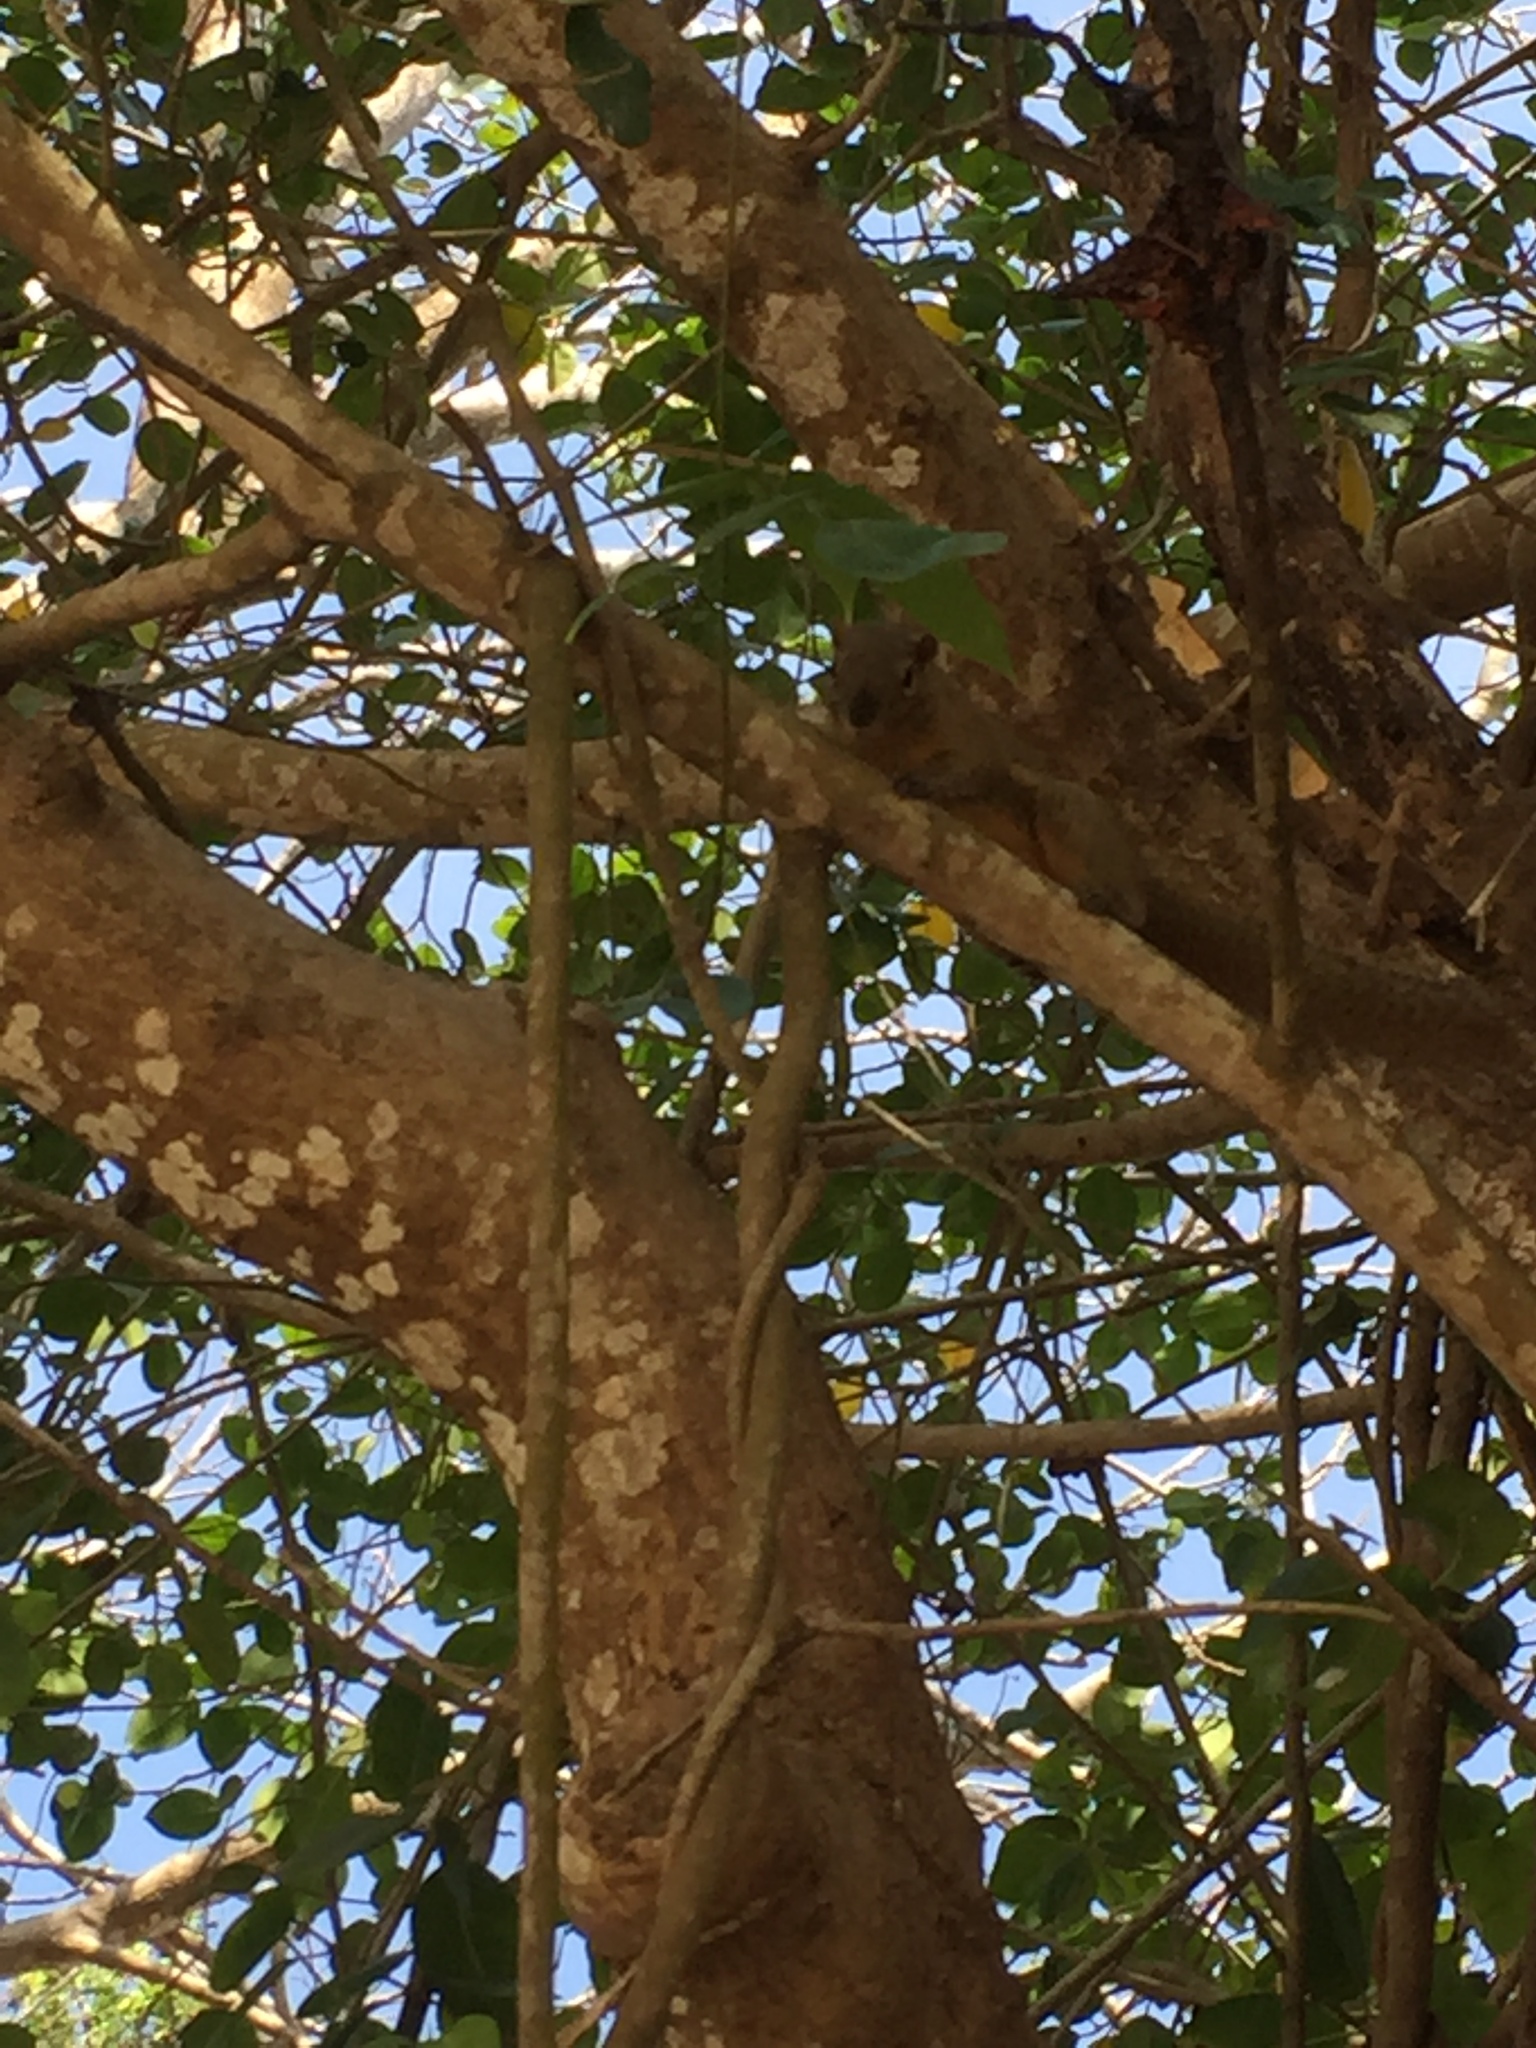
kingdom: Animalia
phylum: Chordata
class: Mammalia
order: Rodentia
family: Sciuridae
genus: Callosciurus
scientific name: Callosciurus notatus
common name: Plantain squirrel
